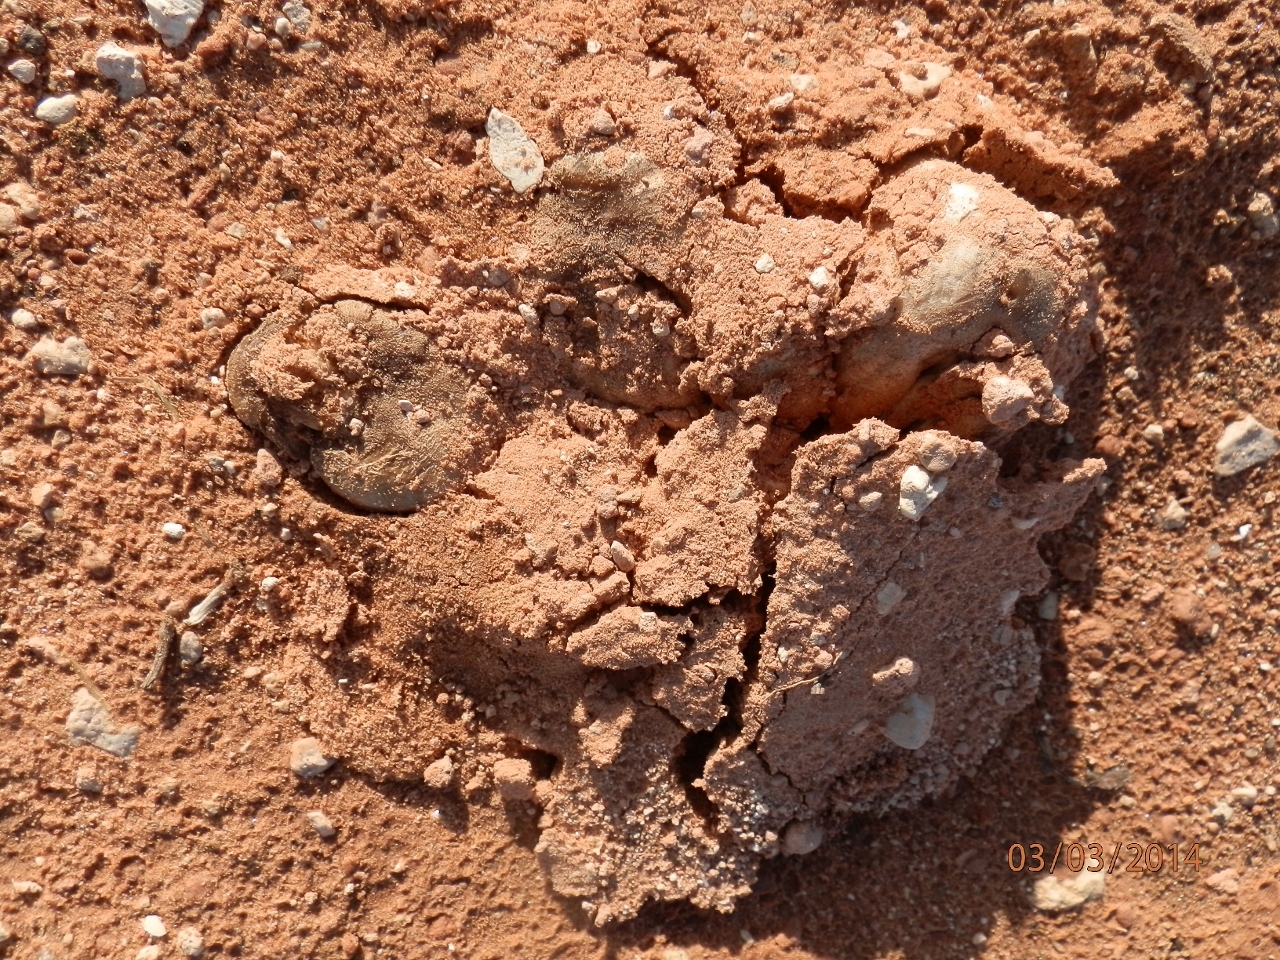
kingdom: Fungi
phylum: Basidiomycota
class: Agaricomycetes
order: Agaricales
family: Psathyrellaceae
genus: Coprinopsis
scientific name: Coprinopsis atramentaria
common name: Common ink-cap
